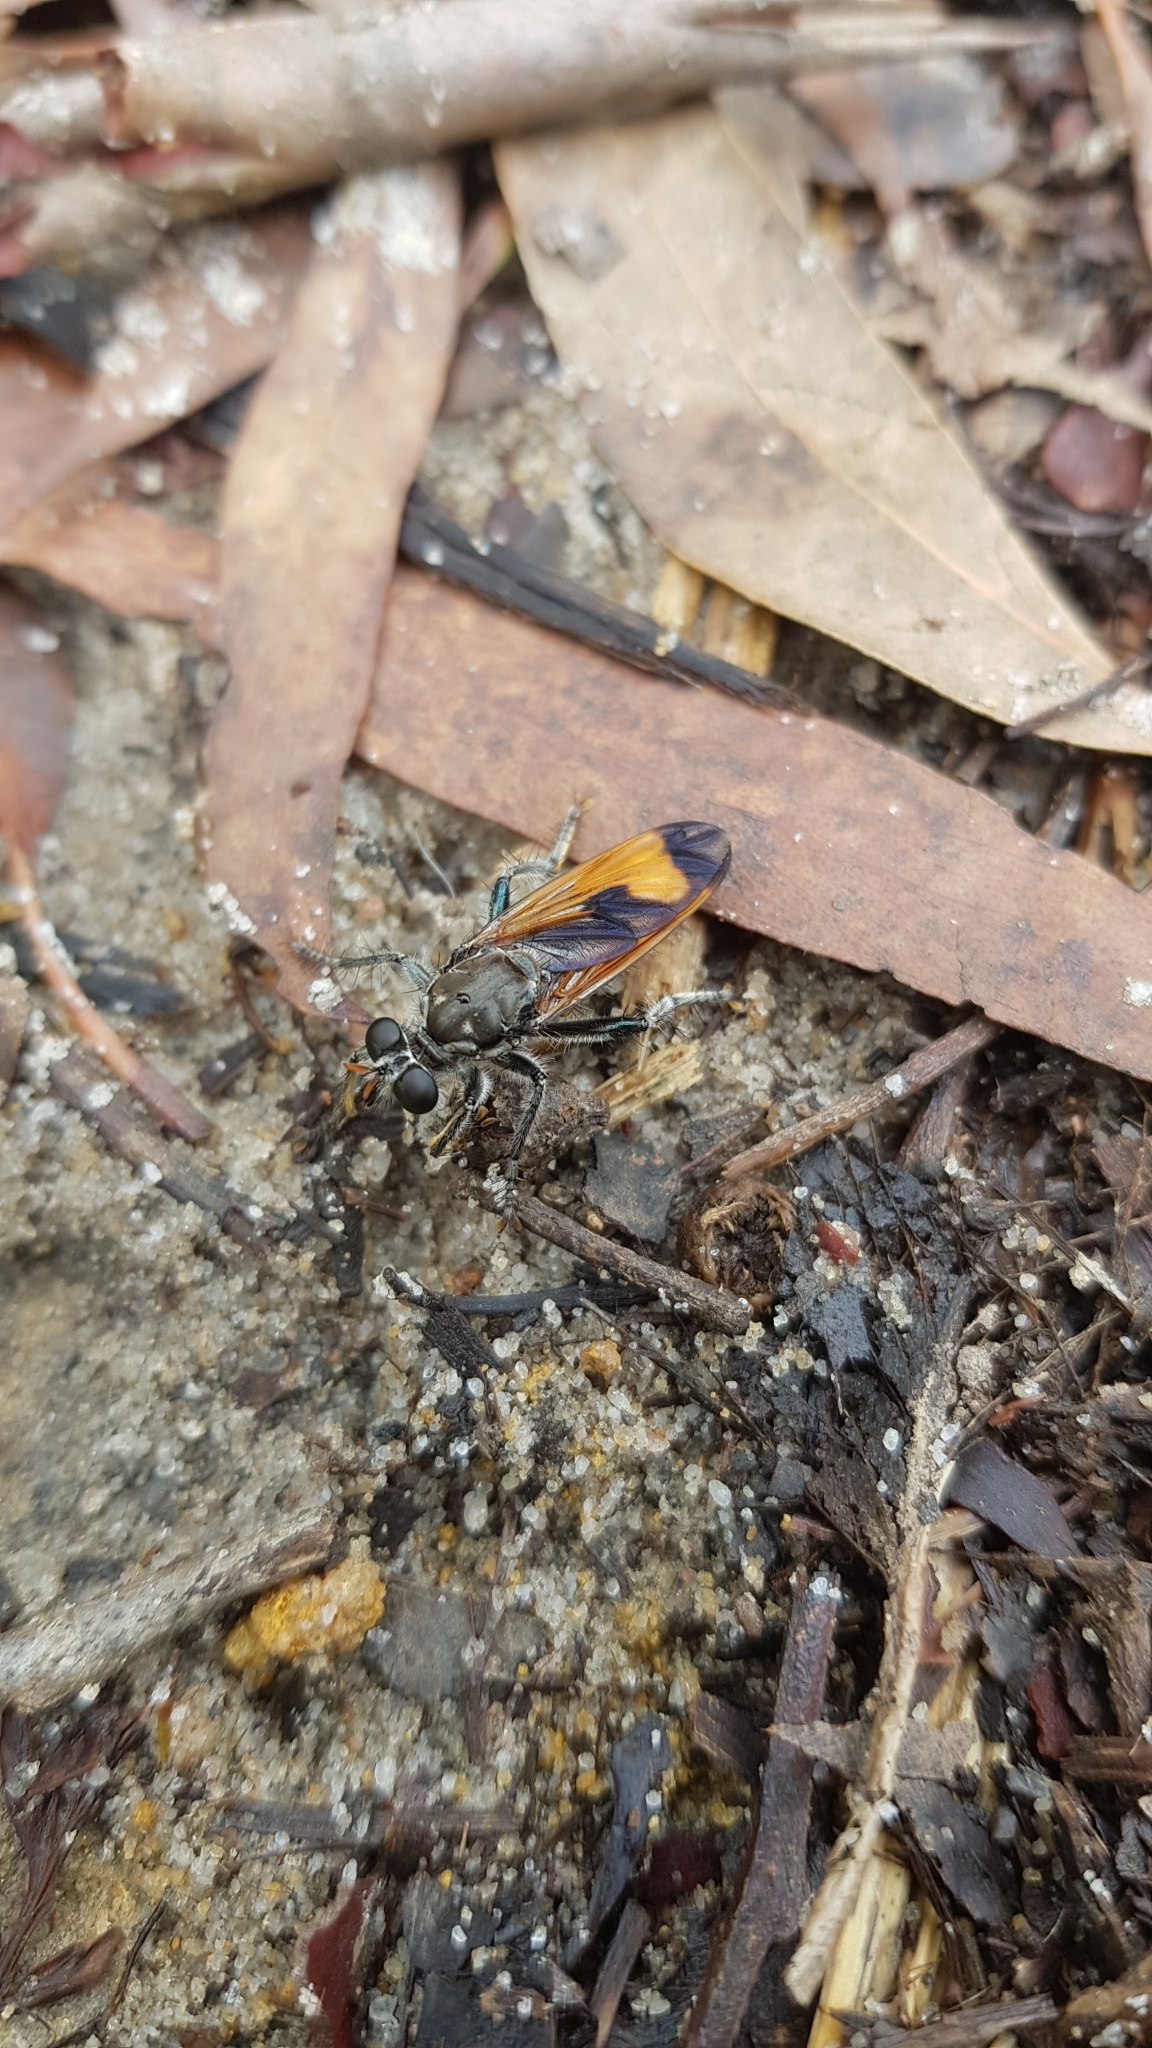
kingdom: Animalia
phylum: Arthropoda
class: Insecta
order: Diptera
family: Asilidae
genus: Orthogonis
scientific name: Orthogonis ornatipennis
